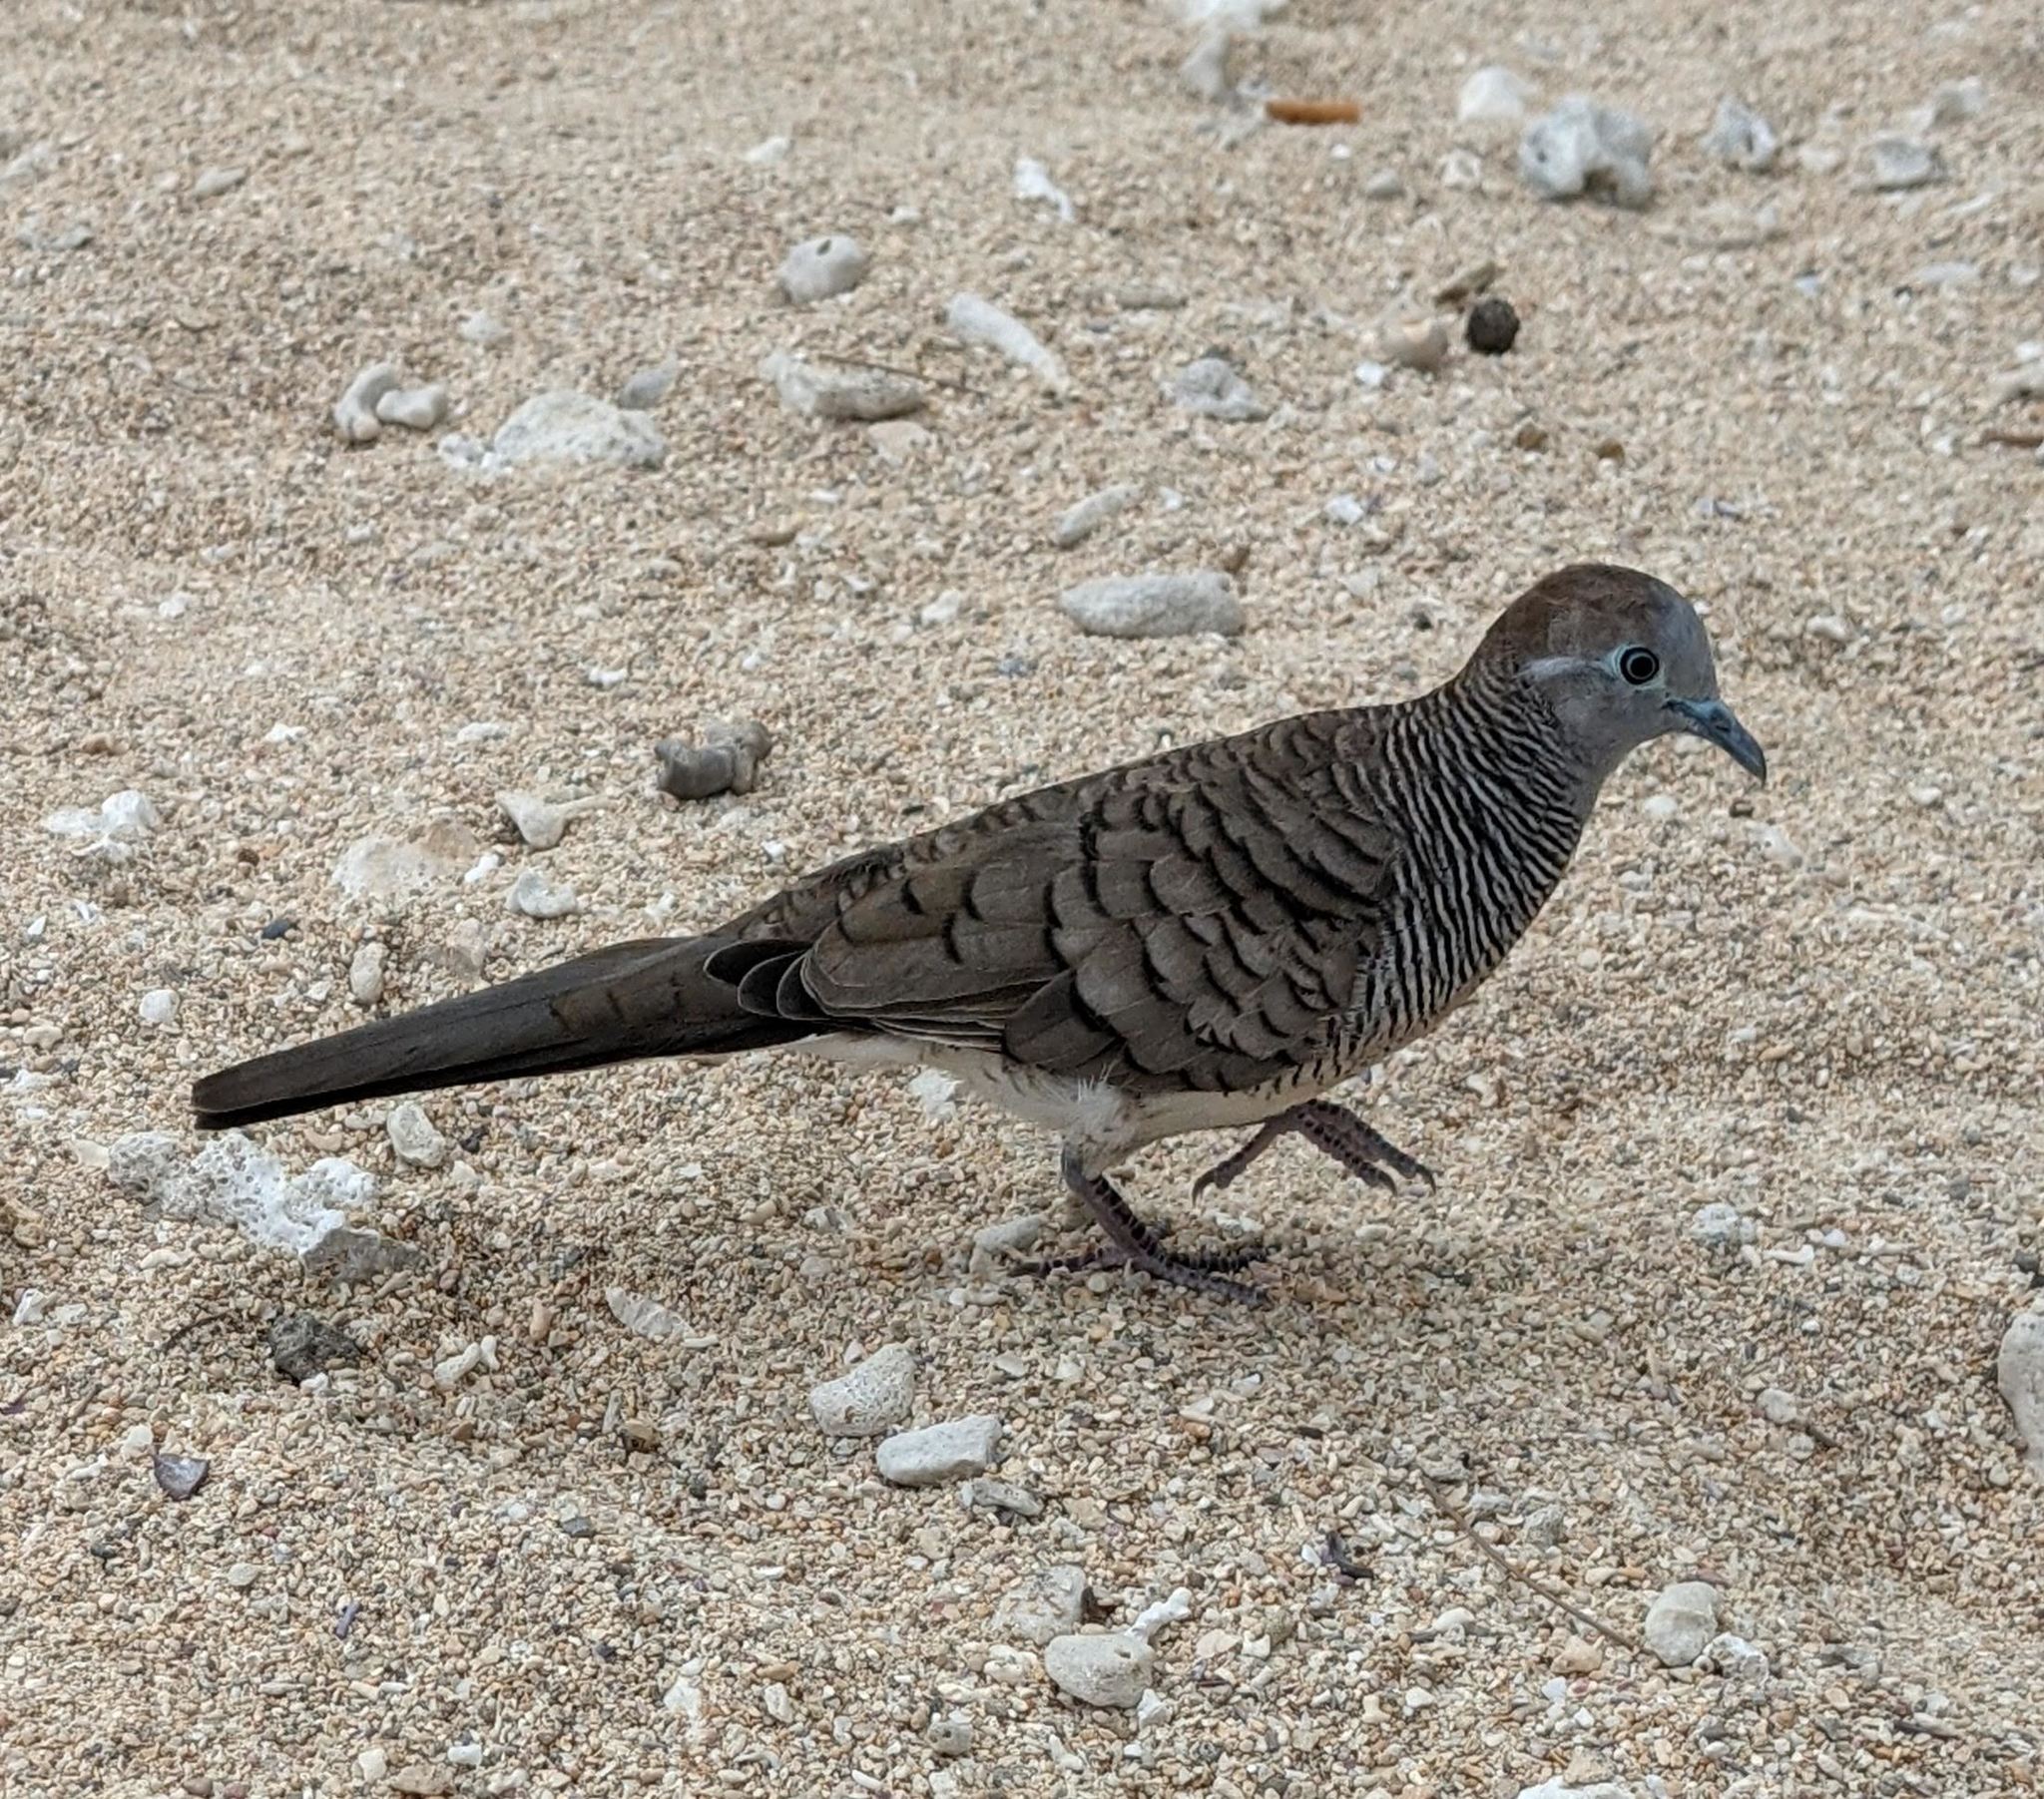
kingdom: Animalia
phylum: Chordata
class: Aves
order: Columbiformes
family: Columbidae
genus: Geopelia
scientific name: Geopelia striata
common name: Zebra dove
